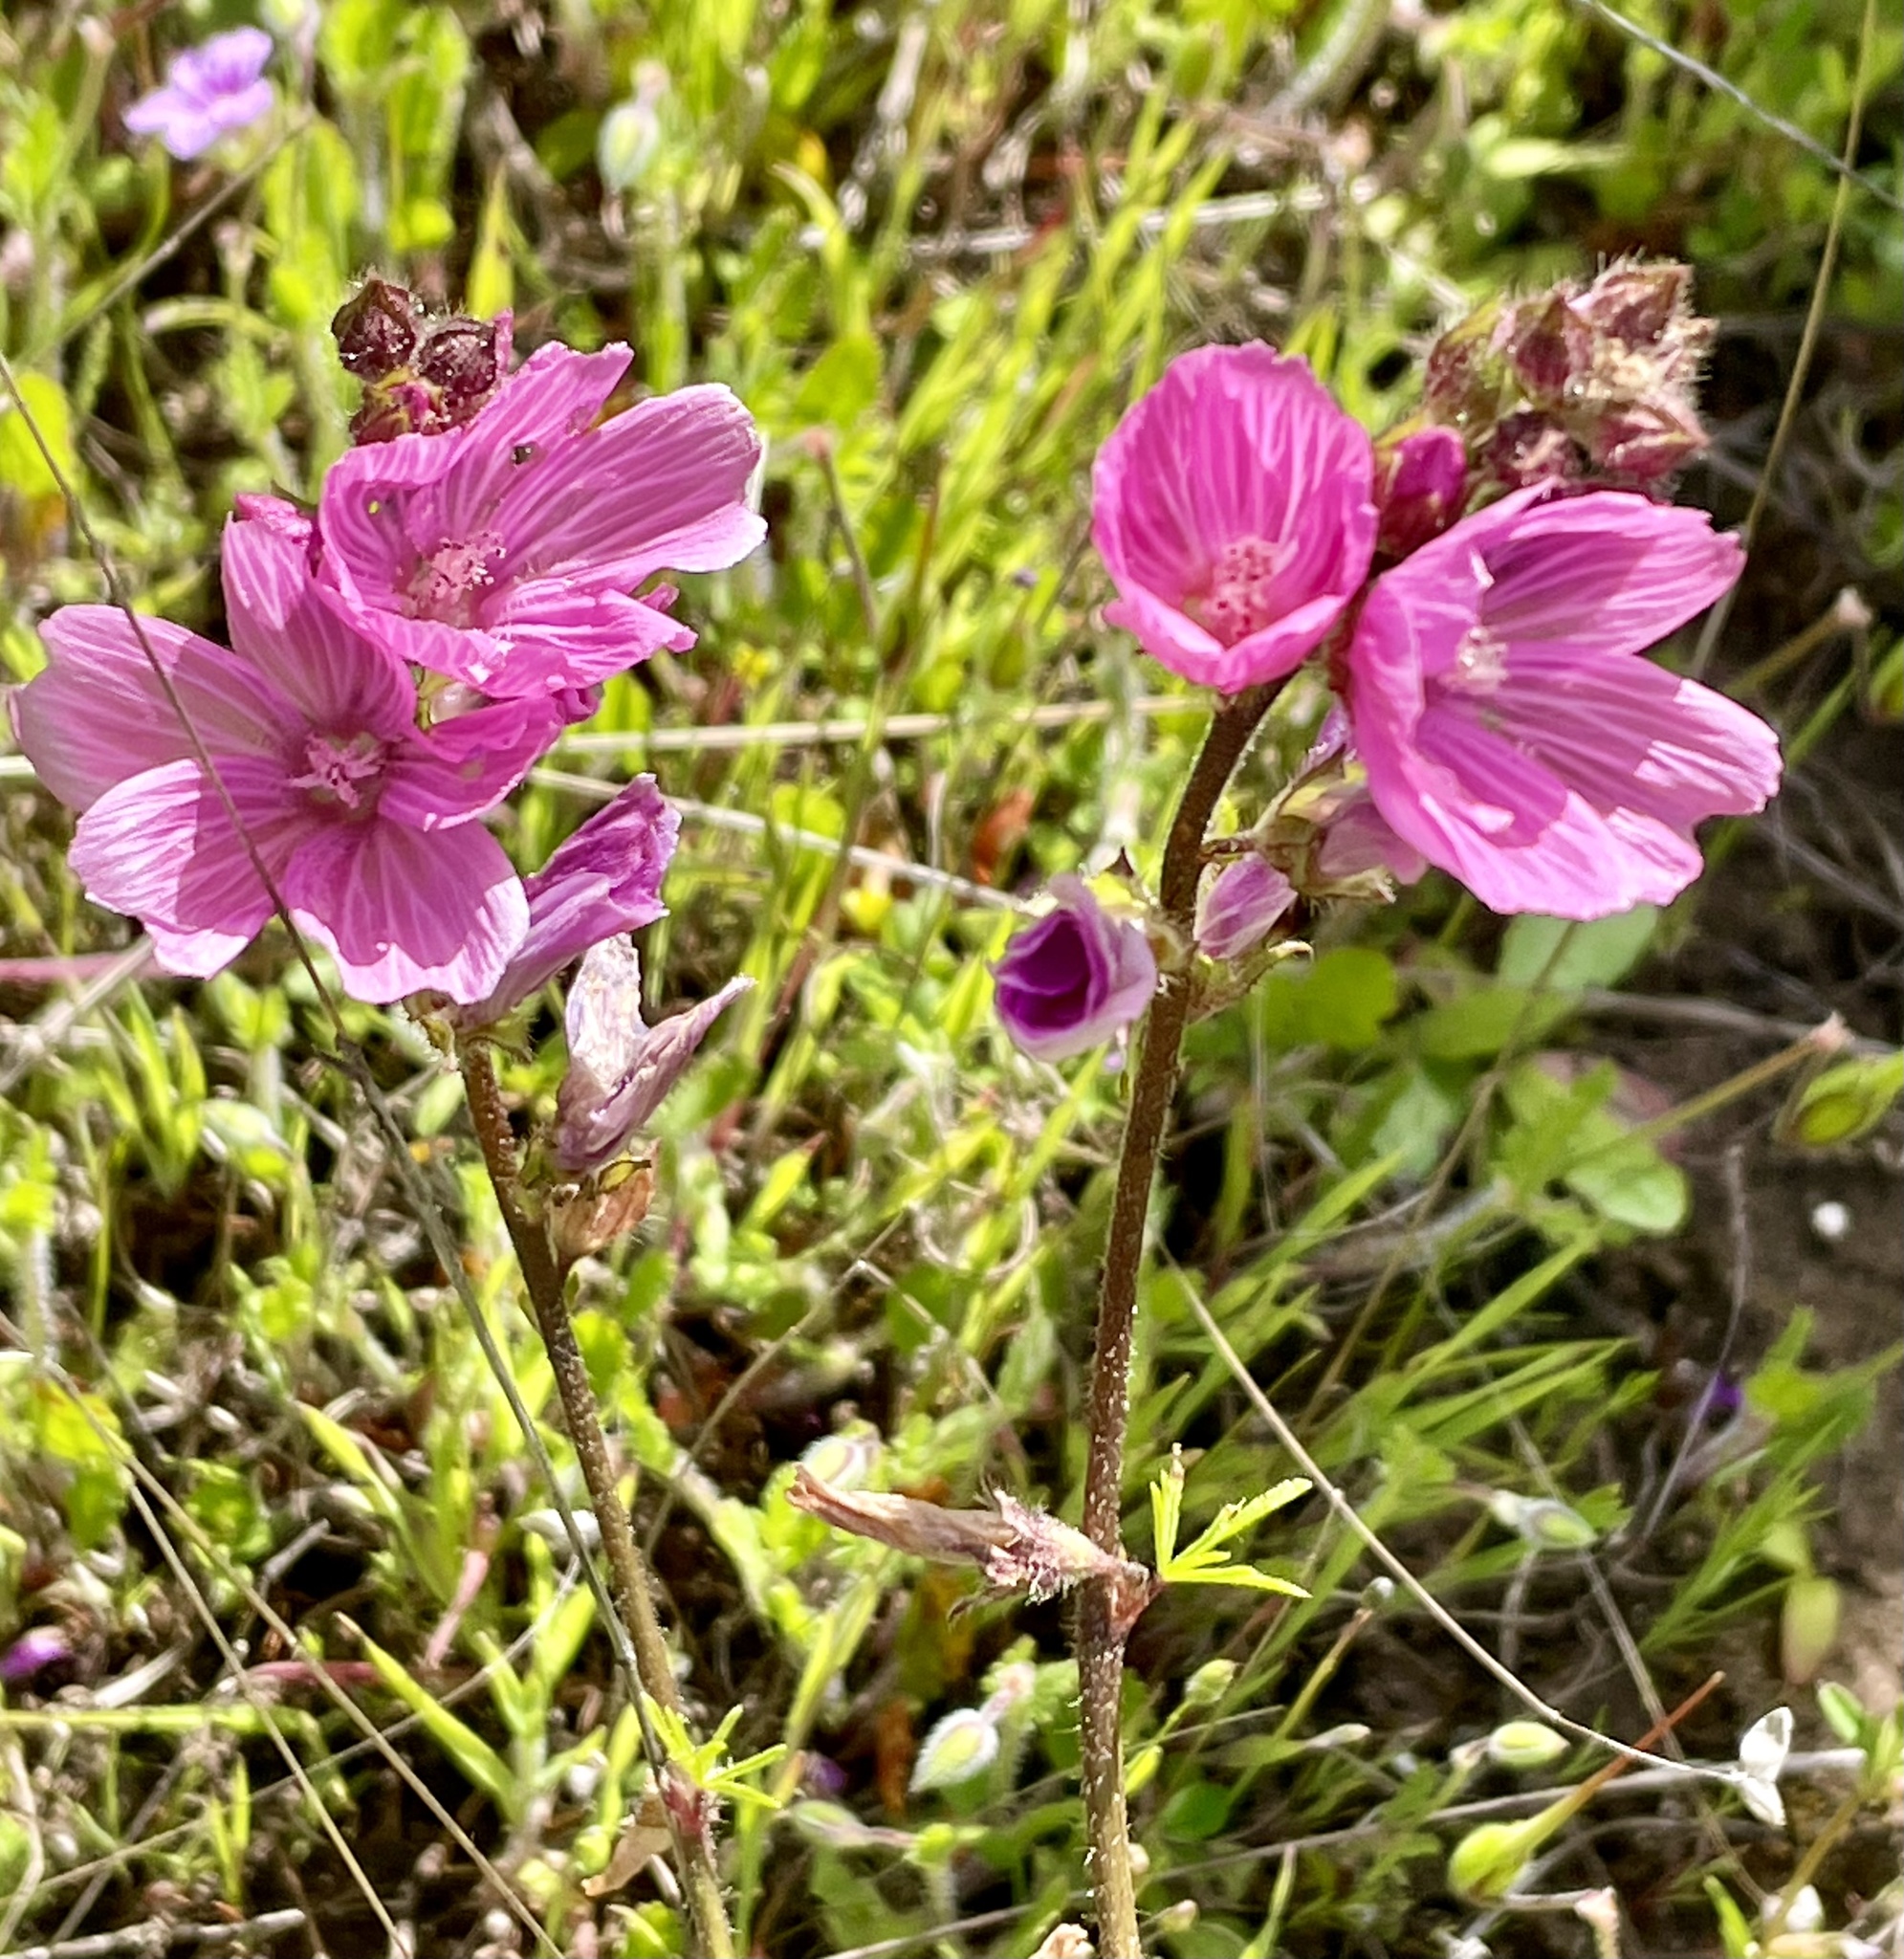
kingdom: Plantae
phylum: Tracheophyta
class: Magnoliopsida
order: Malvales
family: Malvaceae
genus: Sidalcea
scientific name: Sidalcea malviflora
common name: Greek mallow
